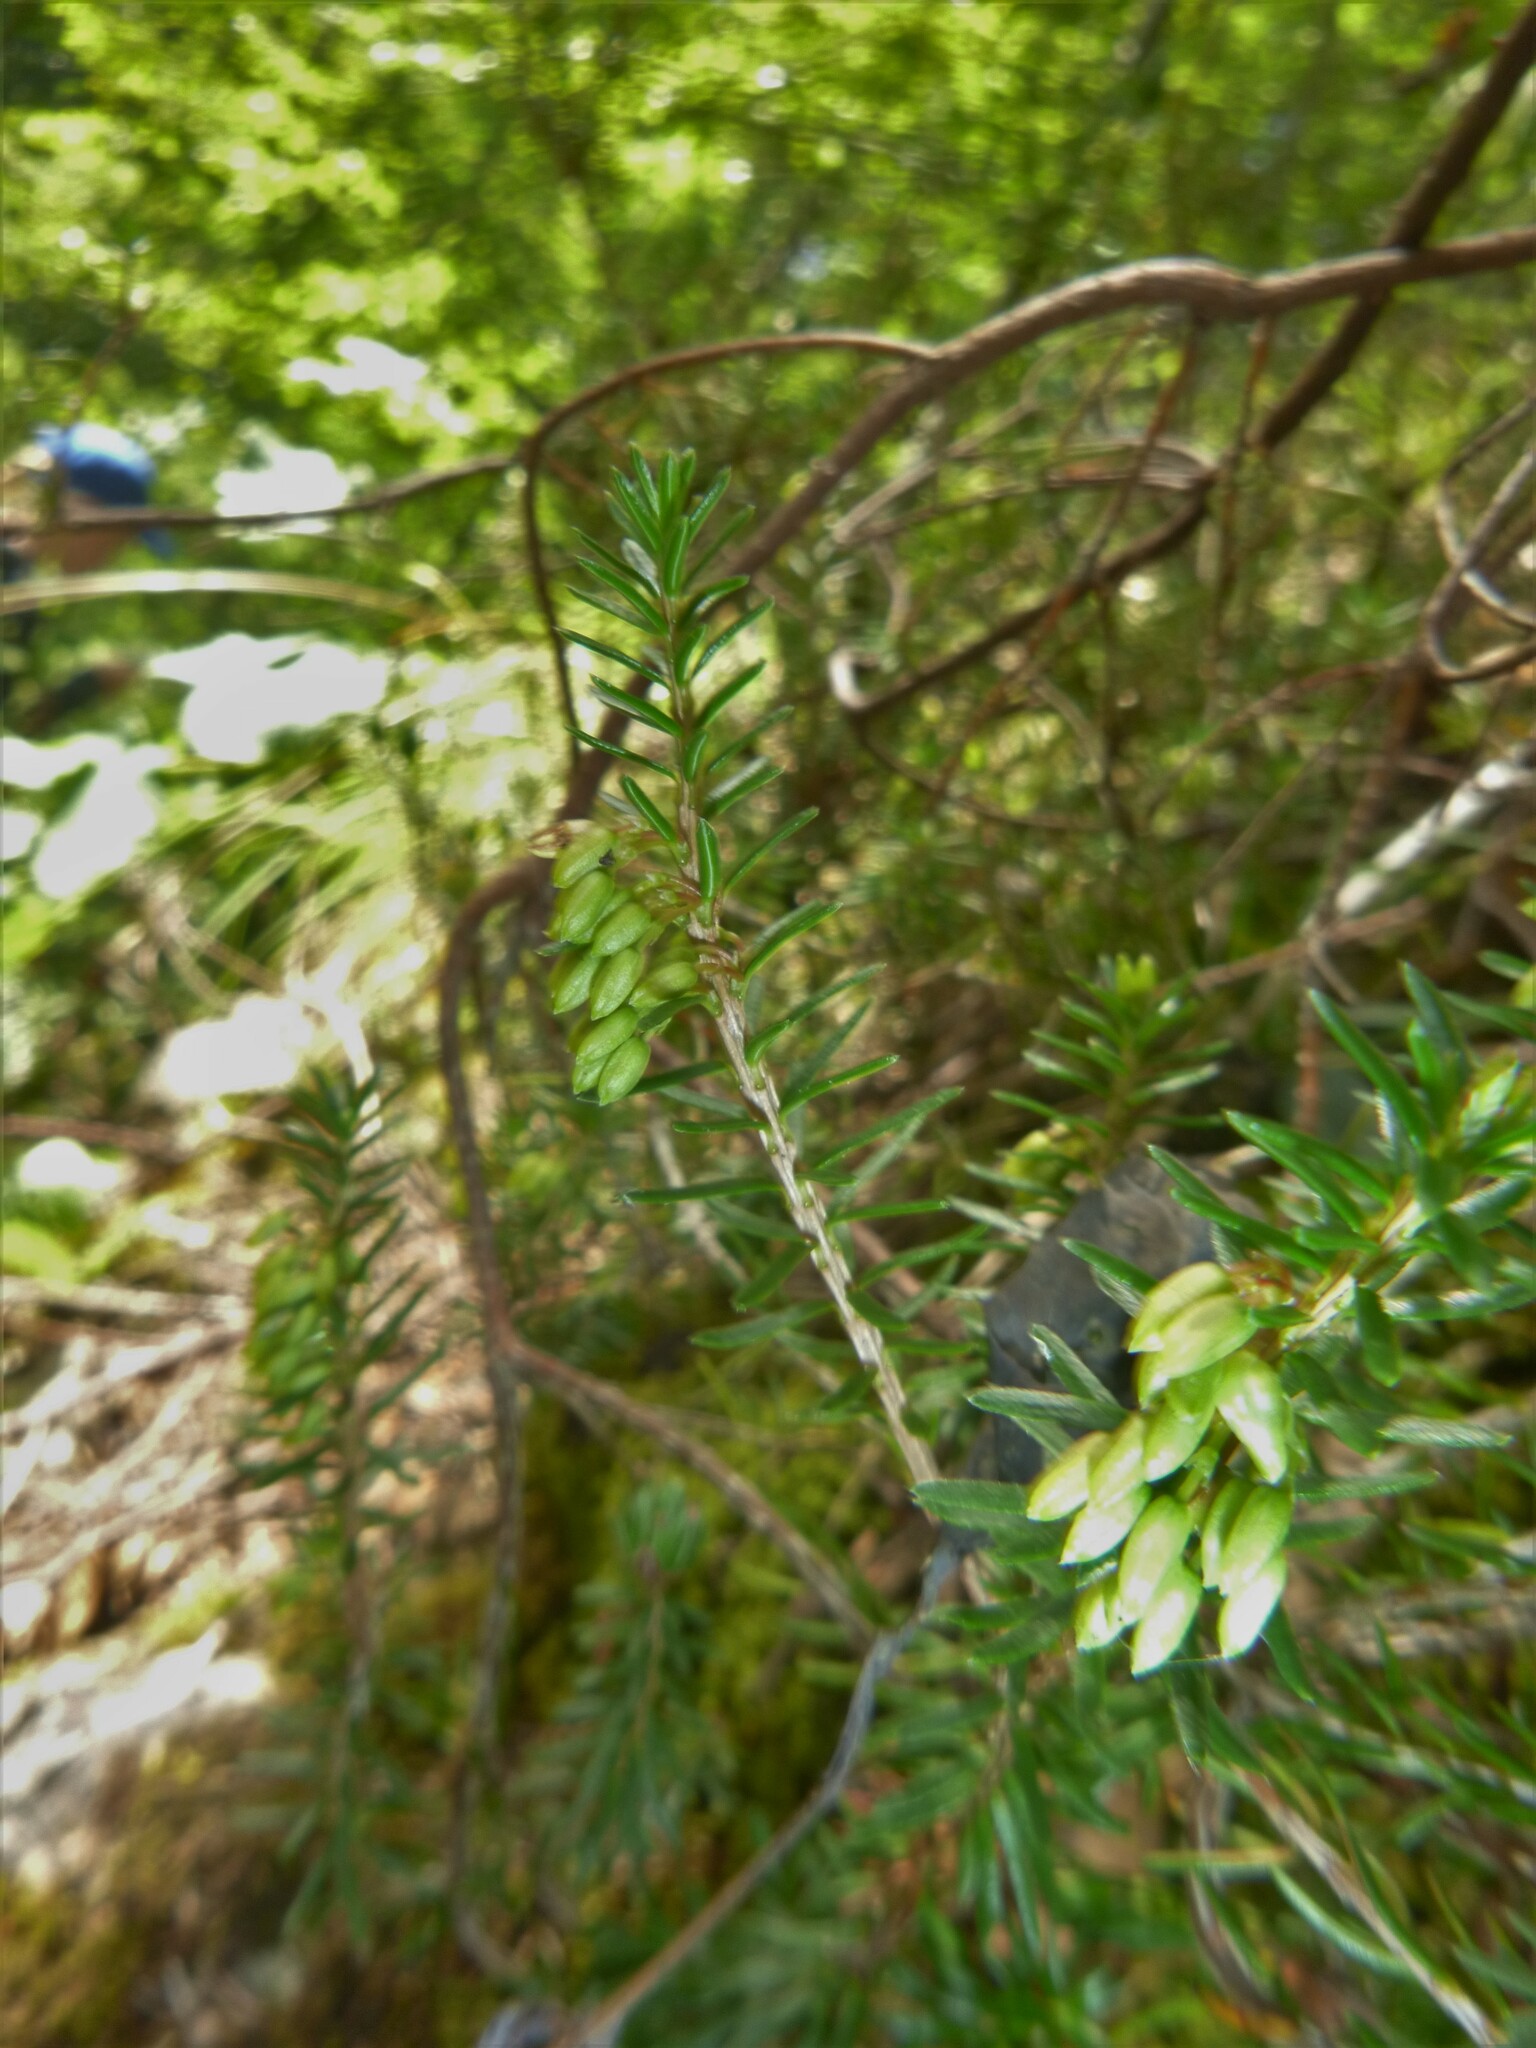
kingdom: Plantae
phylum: Tracheophyta
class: Magnoliopsida
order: Ericales
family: Ericaceae
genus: Erica
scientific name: Erica carnea
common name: Winter heath
